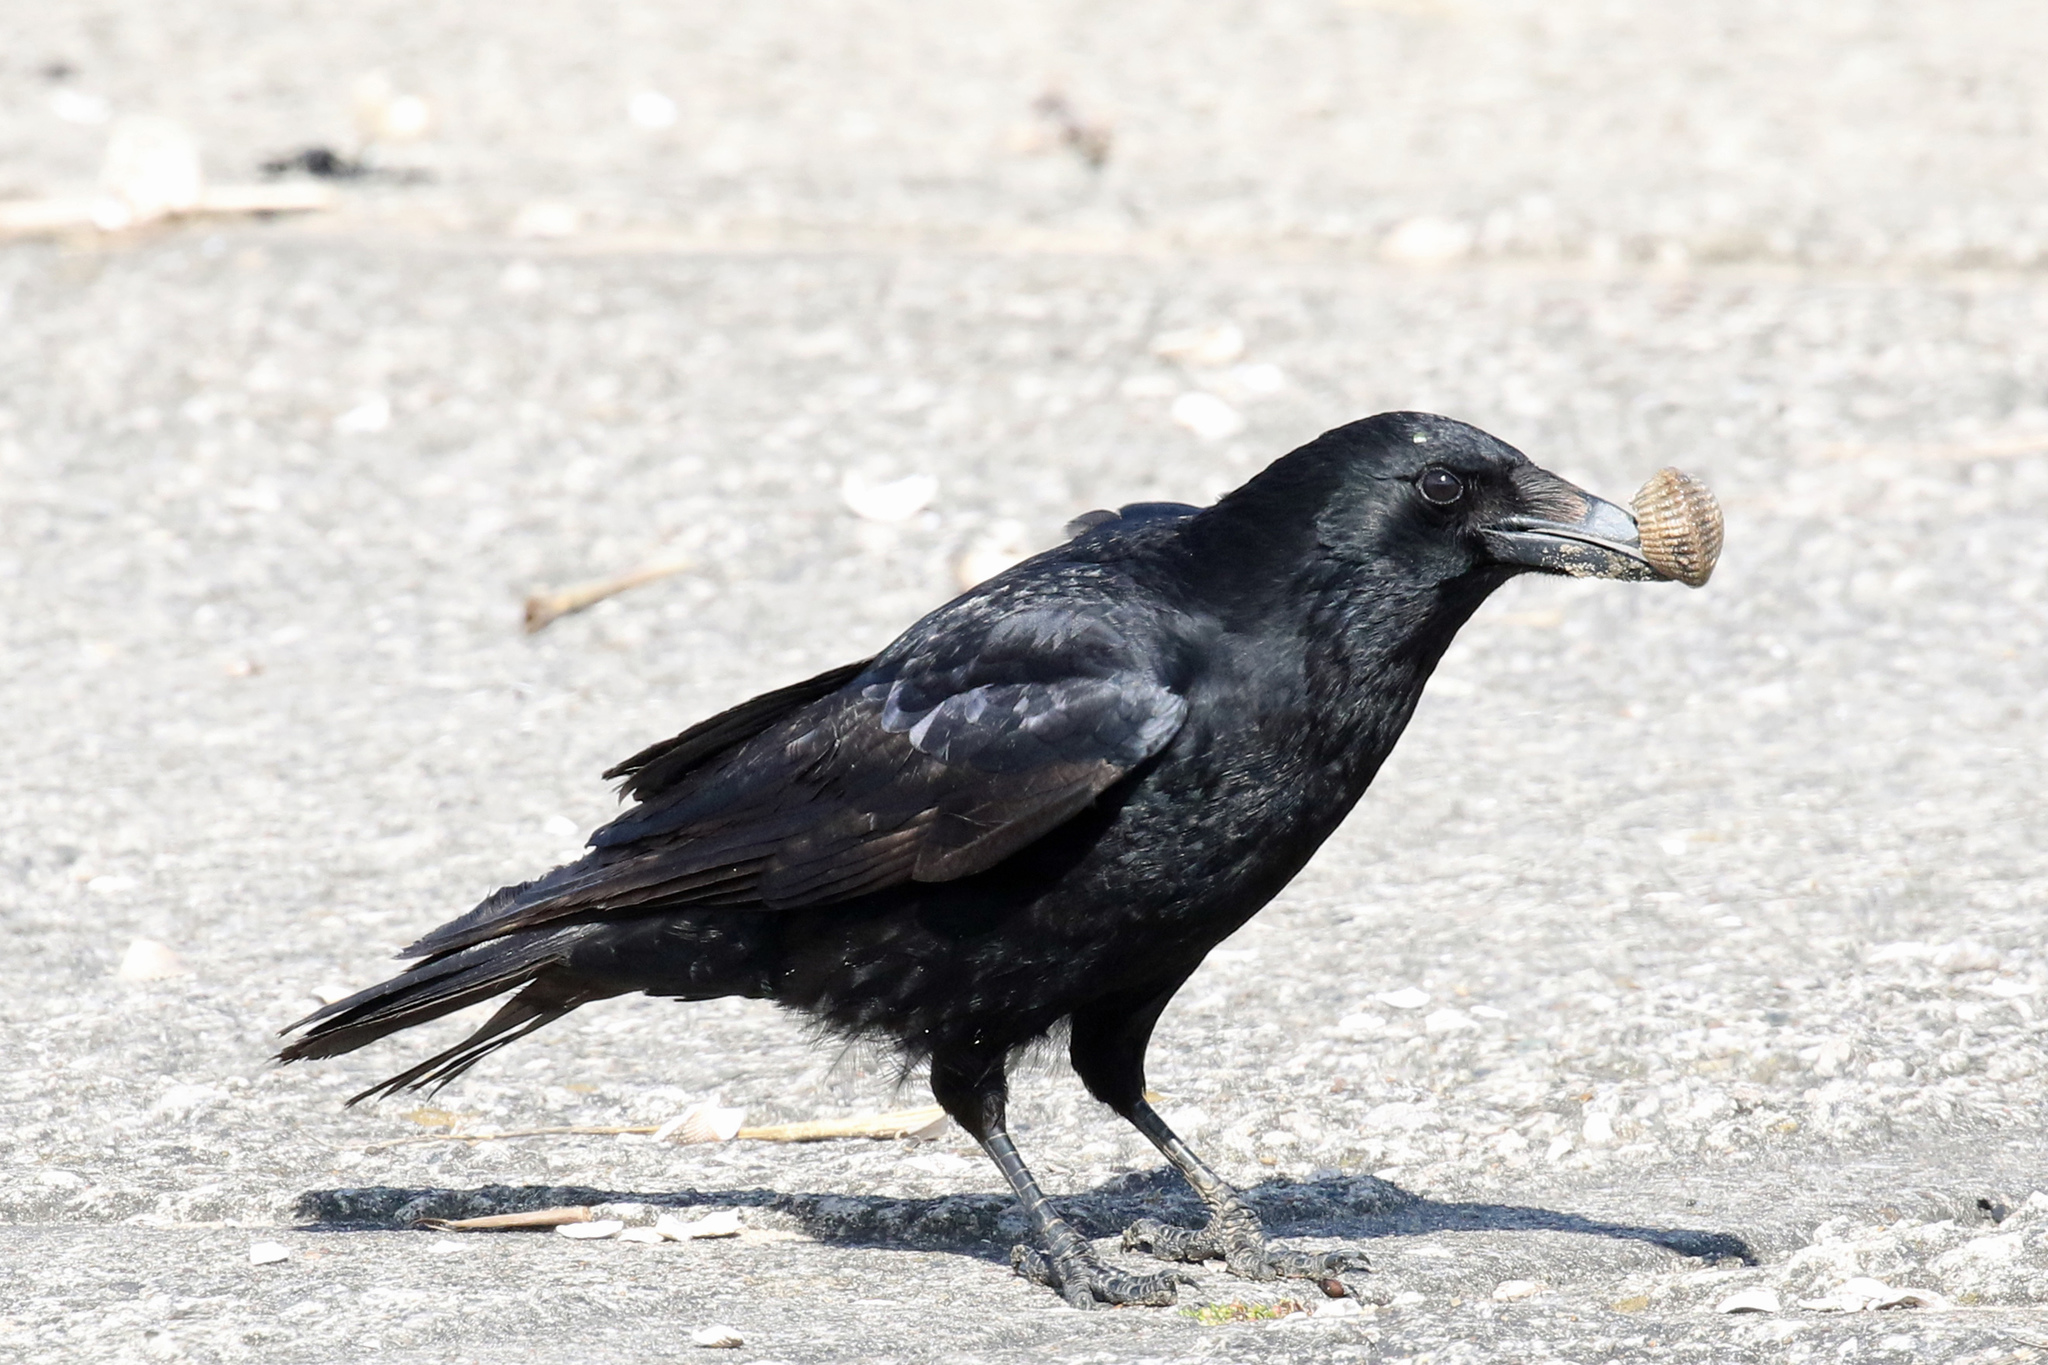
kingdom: Animalia
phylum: Chordata
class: Aves
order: Passeriformes
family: Corvidae
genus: Corvus
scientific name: Corvus corone
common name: Carrion crow
